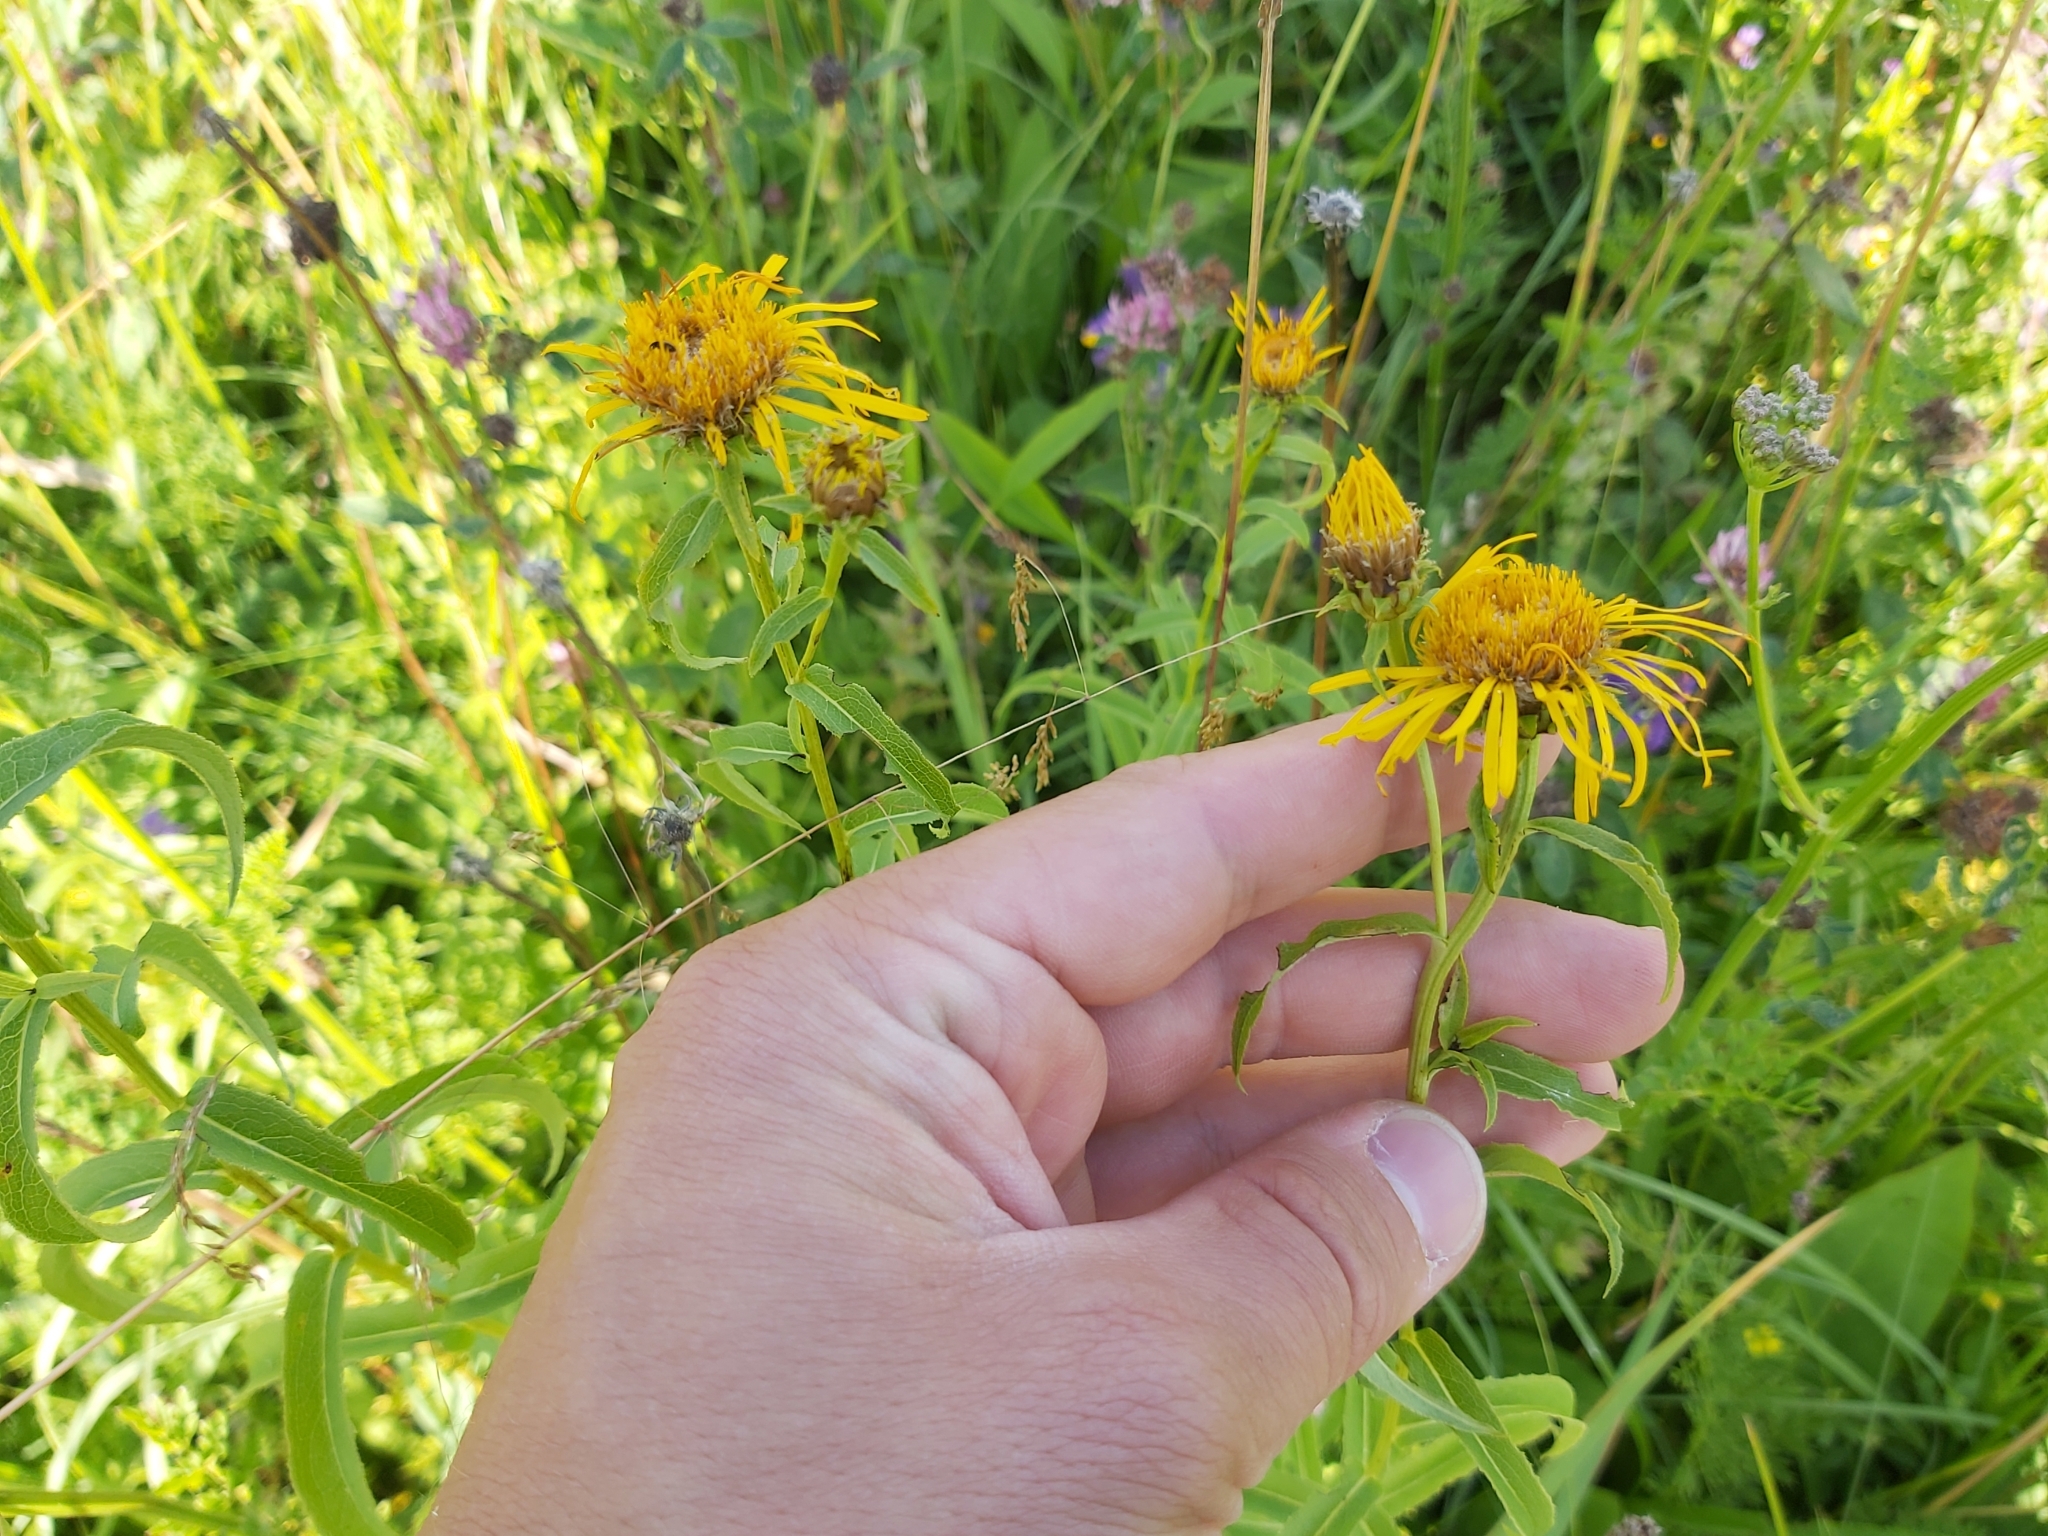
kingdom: Plantae
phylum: Tracheophyta
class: Magnoliopsida
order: Asterales
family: Asteraceae
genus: Pentanema
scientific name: Pentanema salicinum
